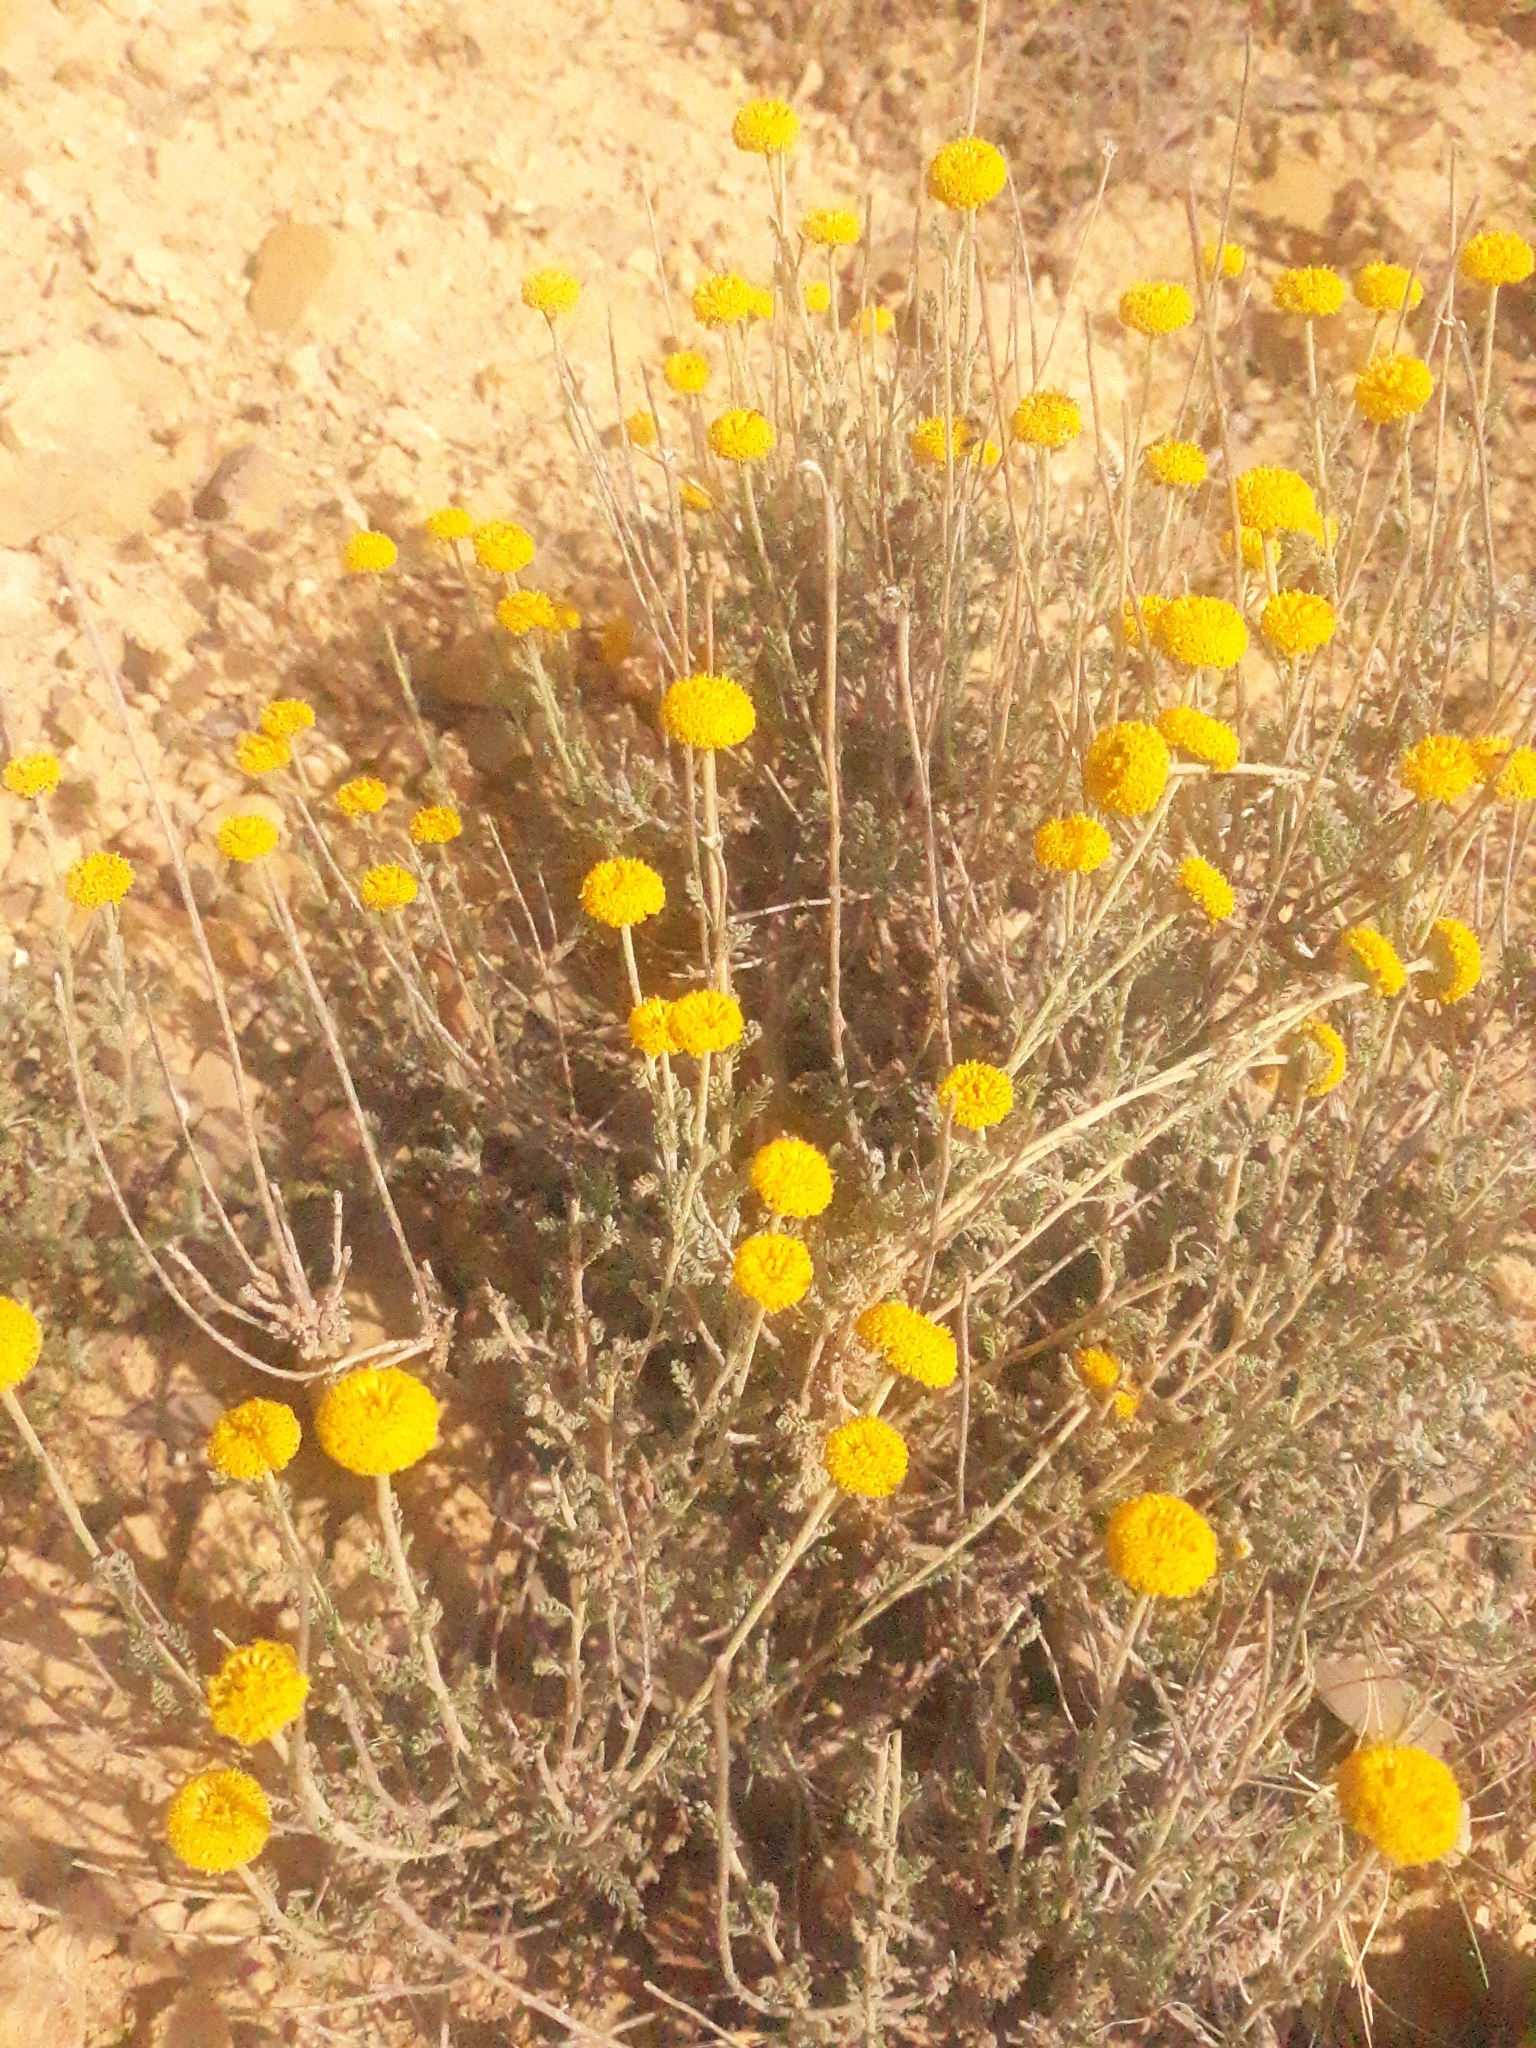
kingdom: Plantae
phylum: Tracheophyta
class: Magnoliopsida
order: Asterales
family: Asteraceae
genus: Santolina
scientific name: Santolina africana
